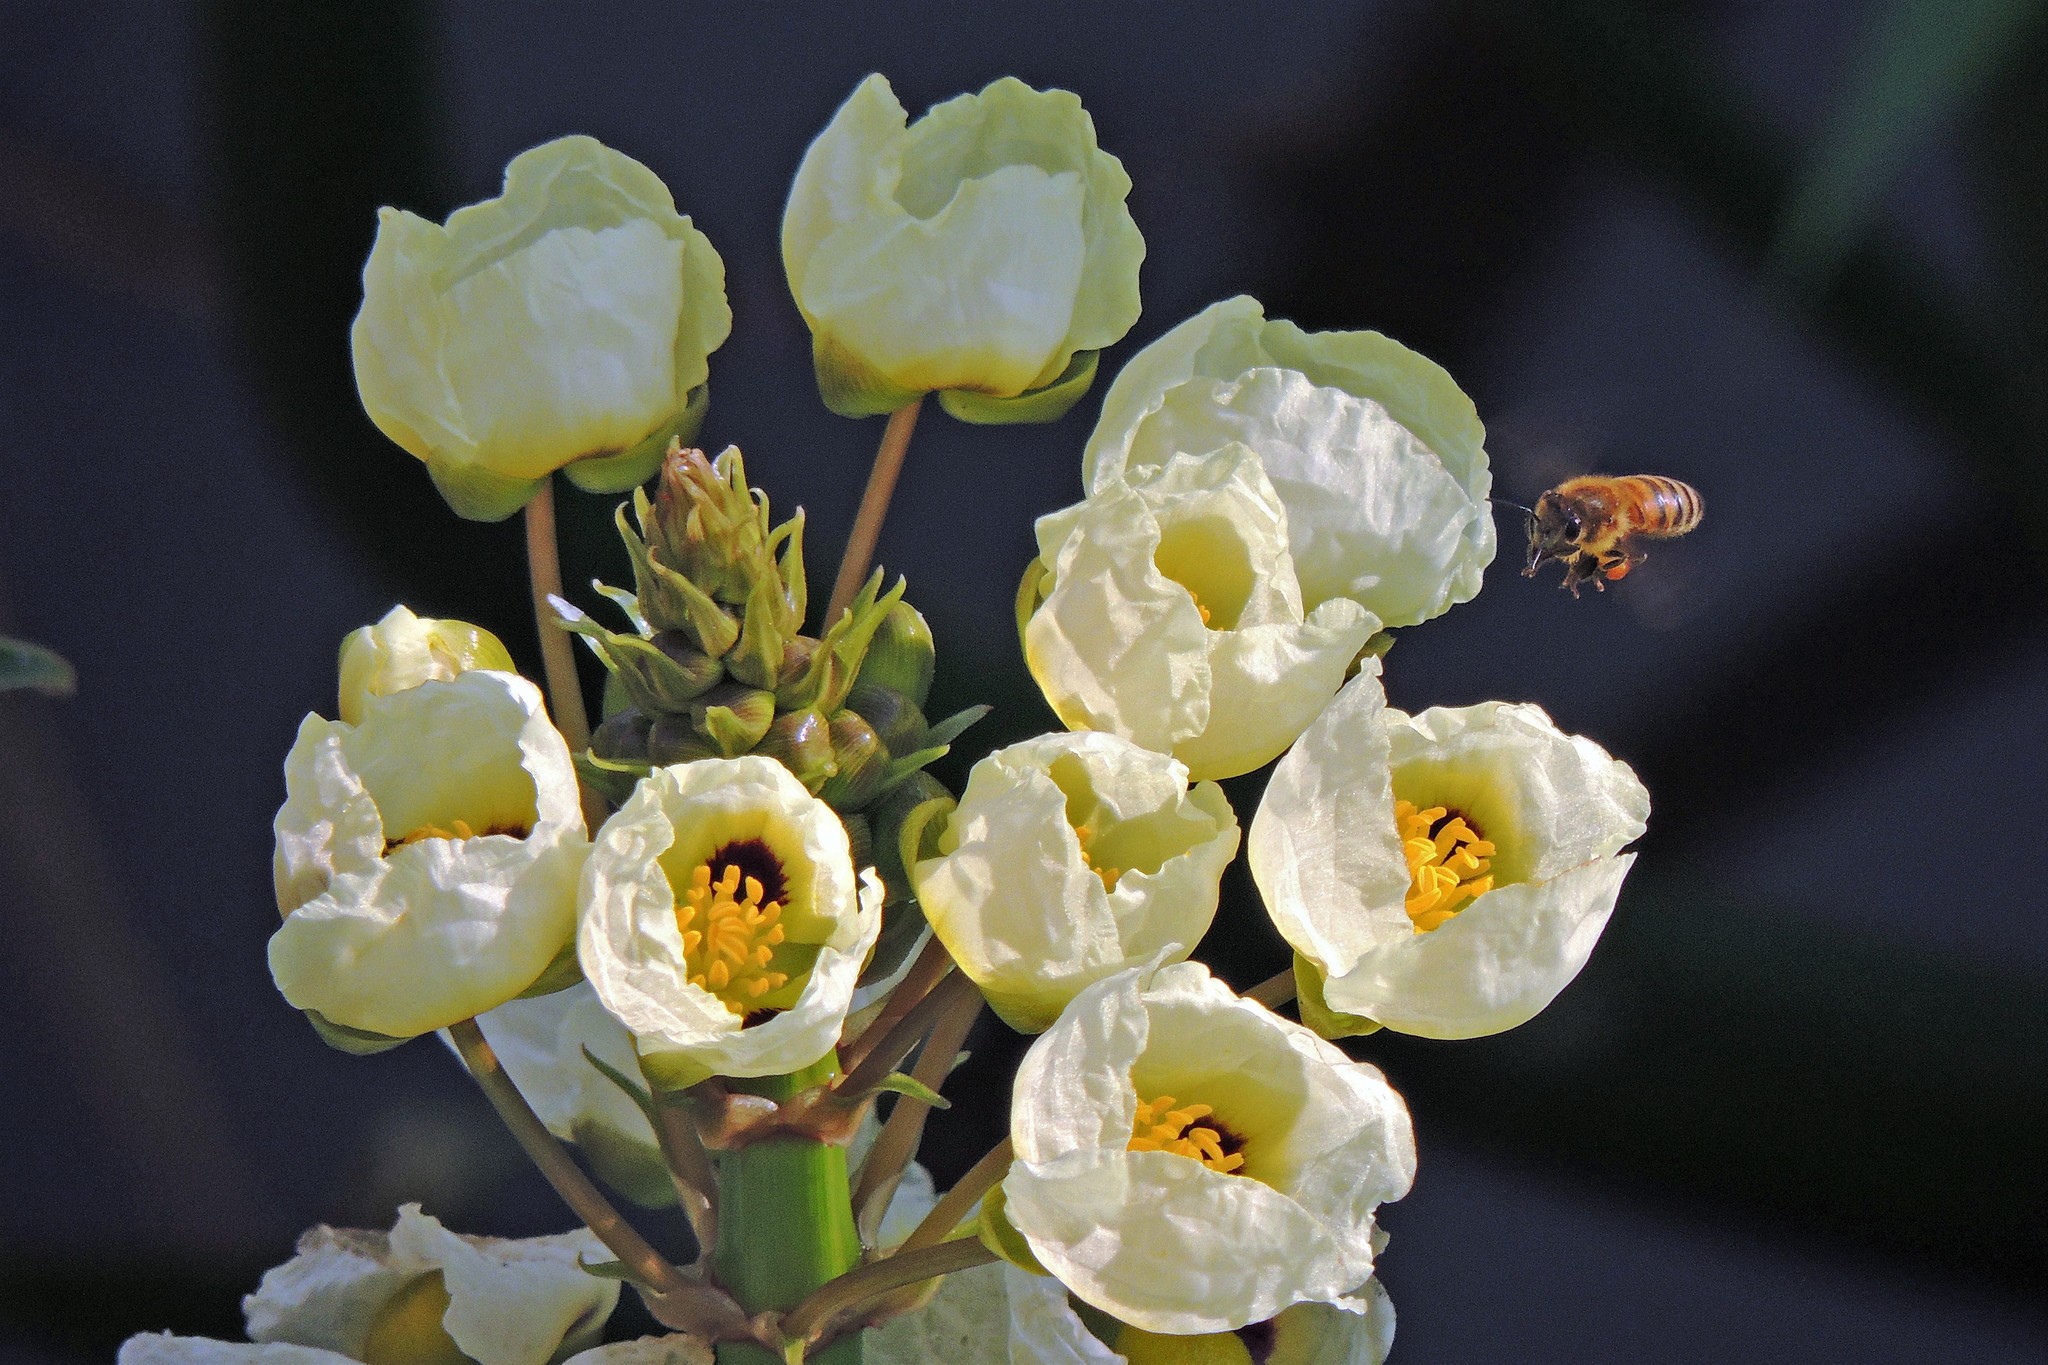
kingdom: Plantae
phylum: Tracheophyta
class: Liliopsida
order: Alismatales
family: Alismataceae
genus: Sagittaria
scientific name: Sagittaria montevidensis
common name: Giant arrowhead
